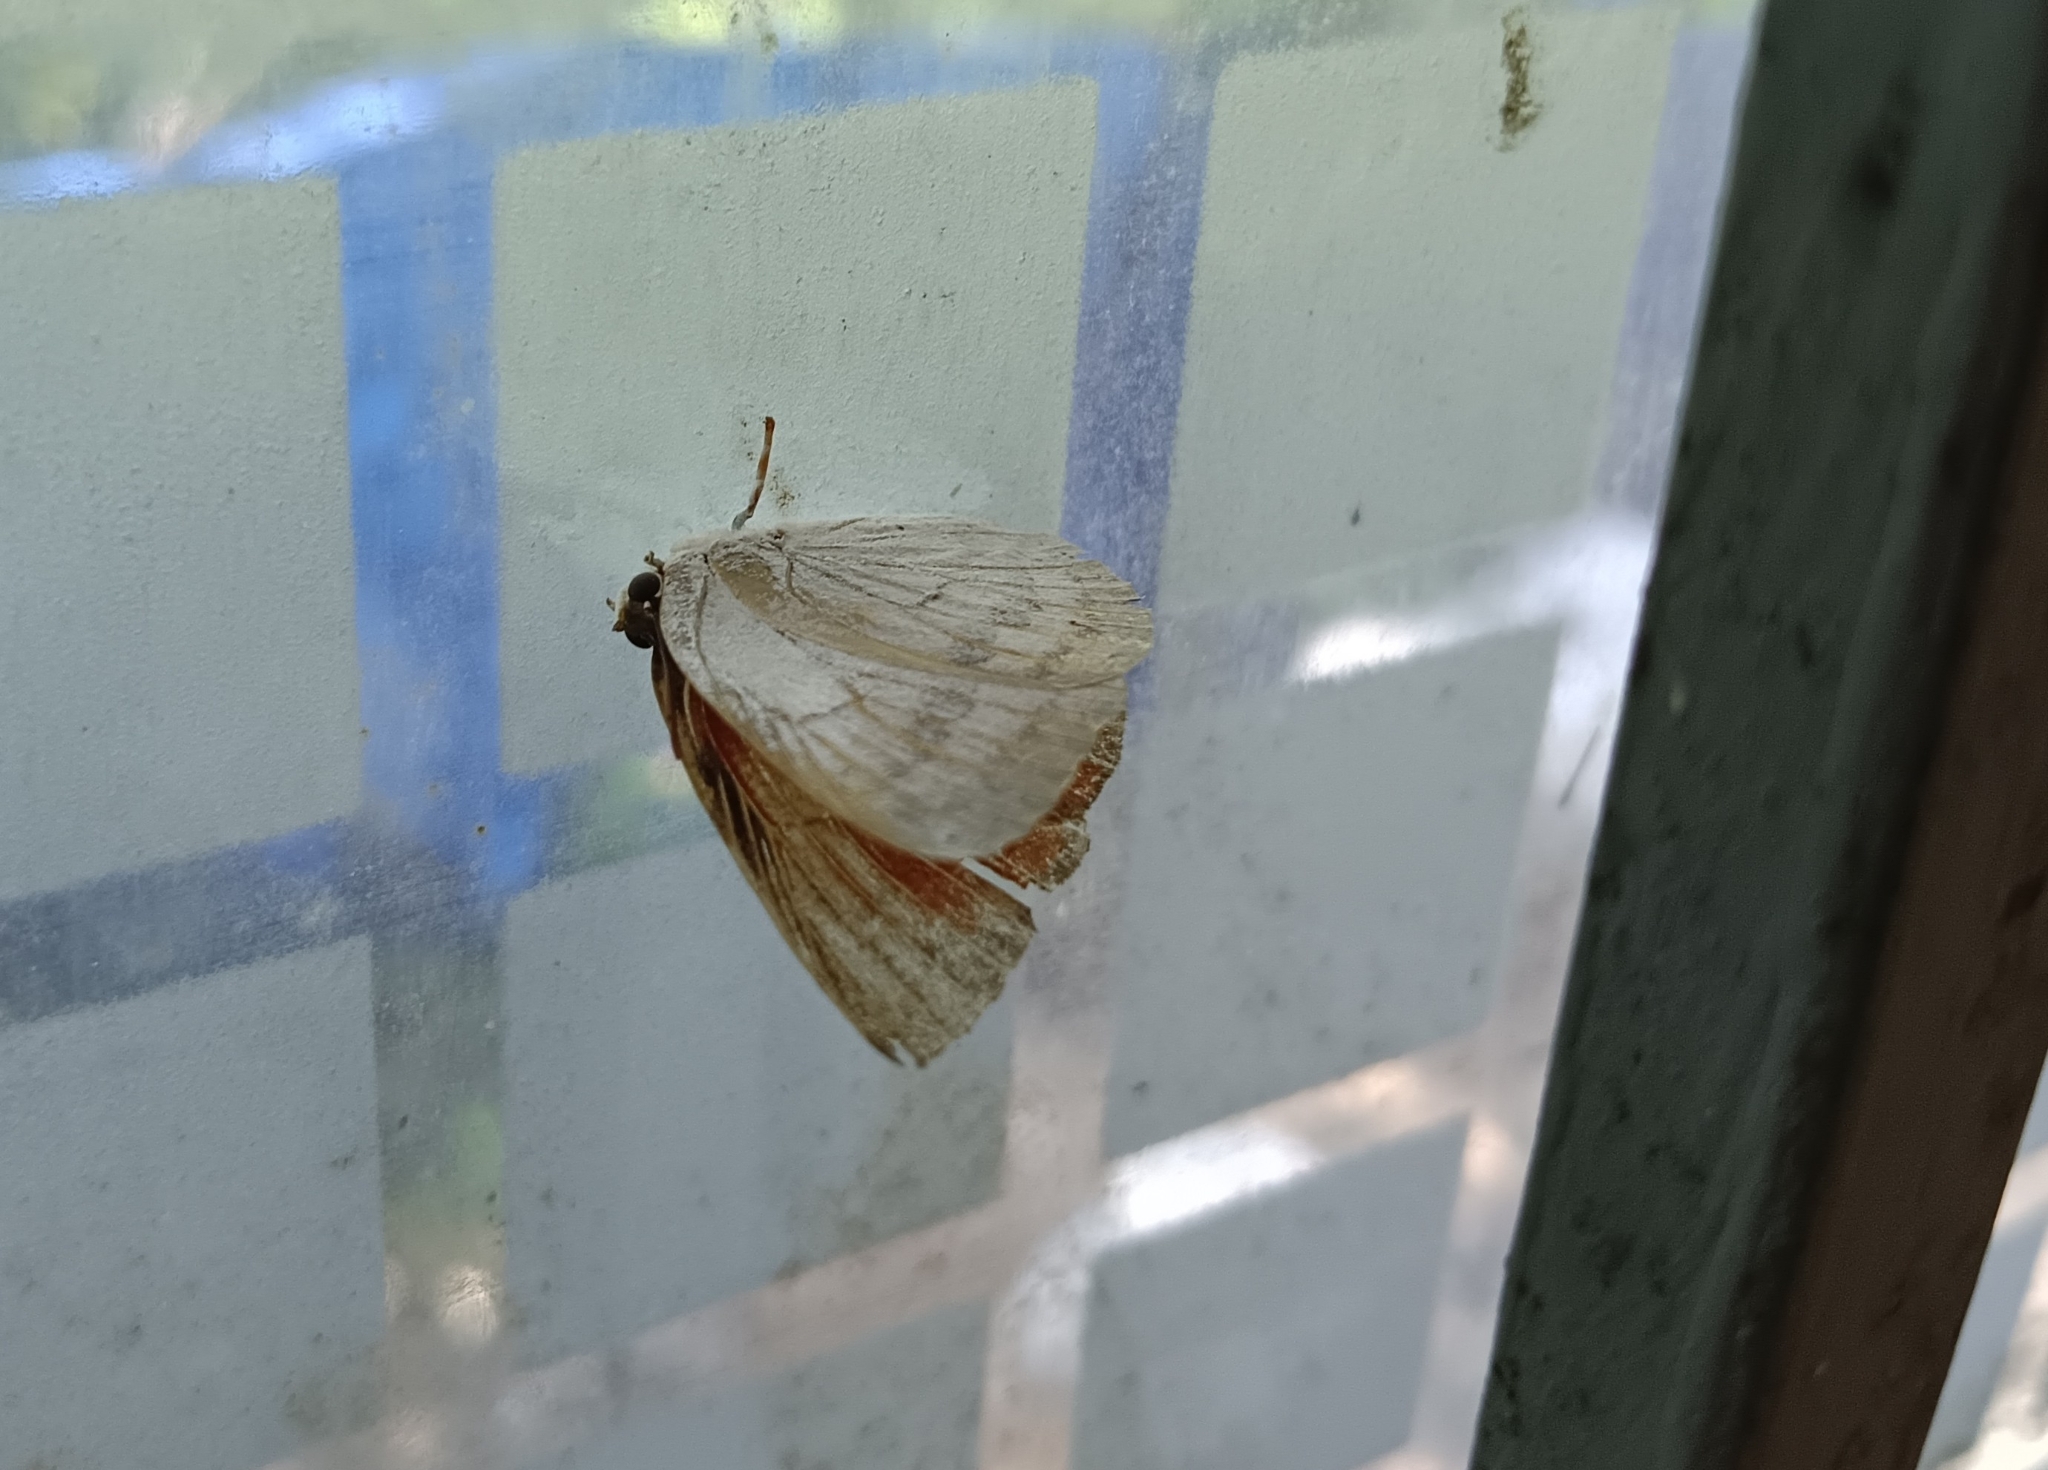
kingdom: Animalia
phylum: Arthropoda
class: Insecta
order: Lepidoptera
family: Lycaenidae
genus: Curetis
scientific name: Curetis thetis
